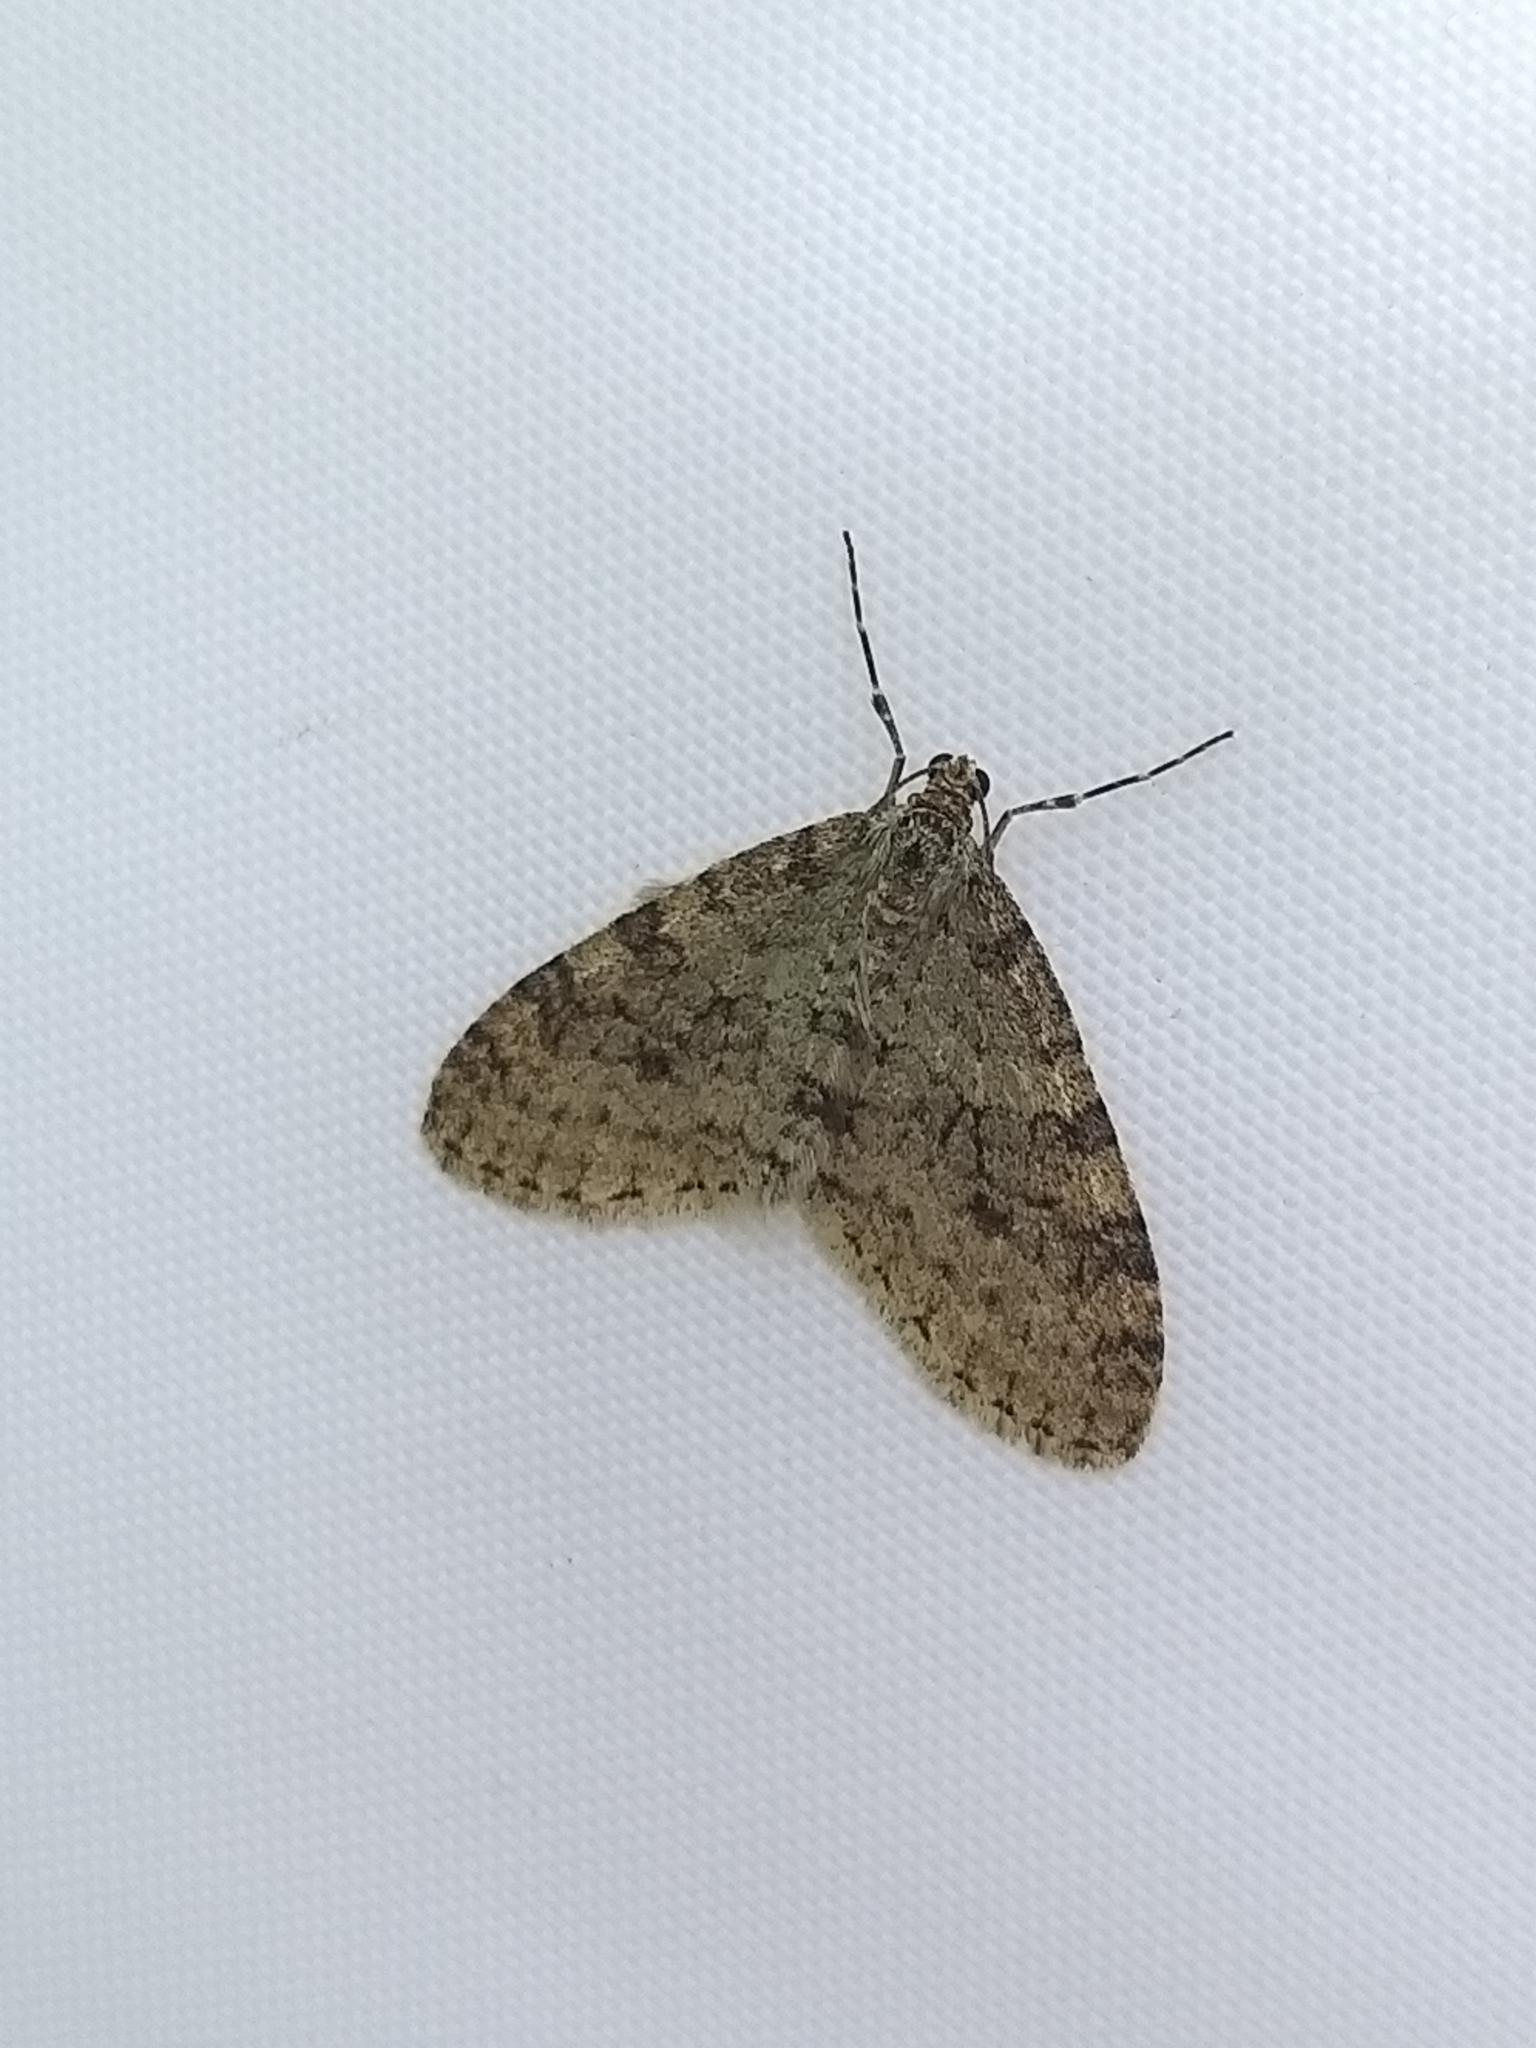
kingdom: Animalia
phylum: Arthropoda
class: Insecta
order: Lepidoptera
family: Geometridae
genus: Trichopteryx
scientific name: Trichopteryx carpinata
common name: Early tooth-striped
